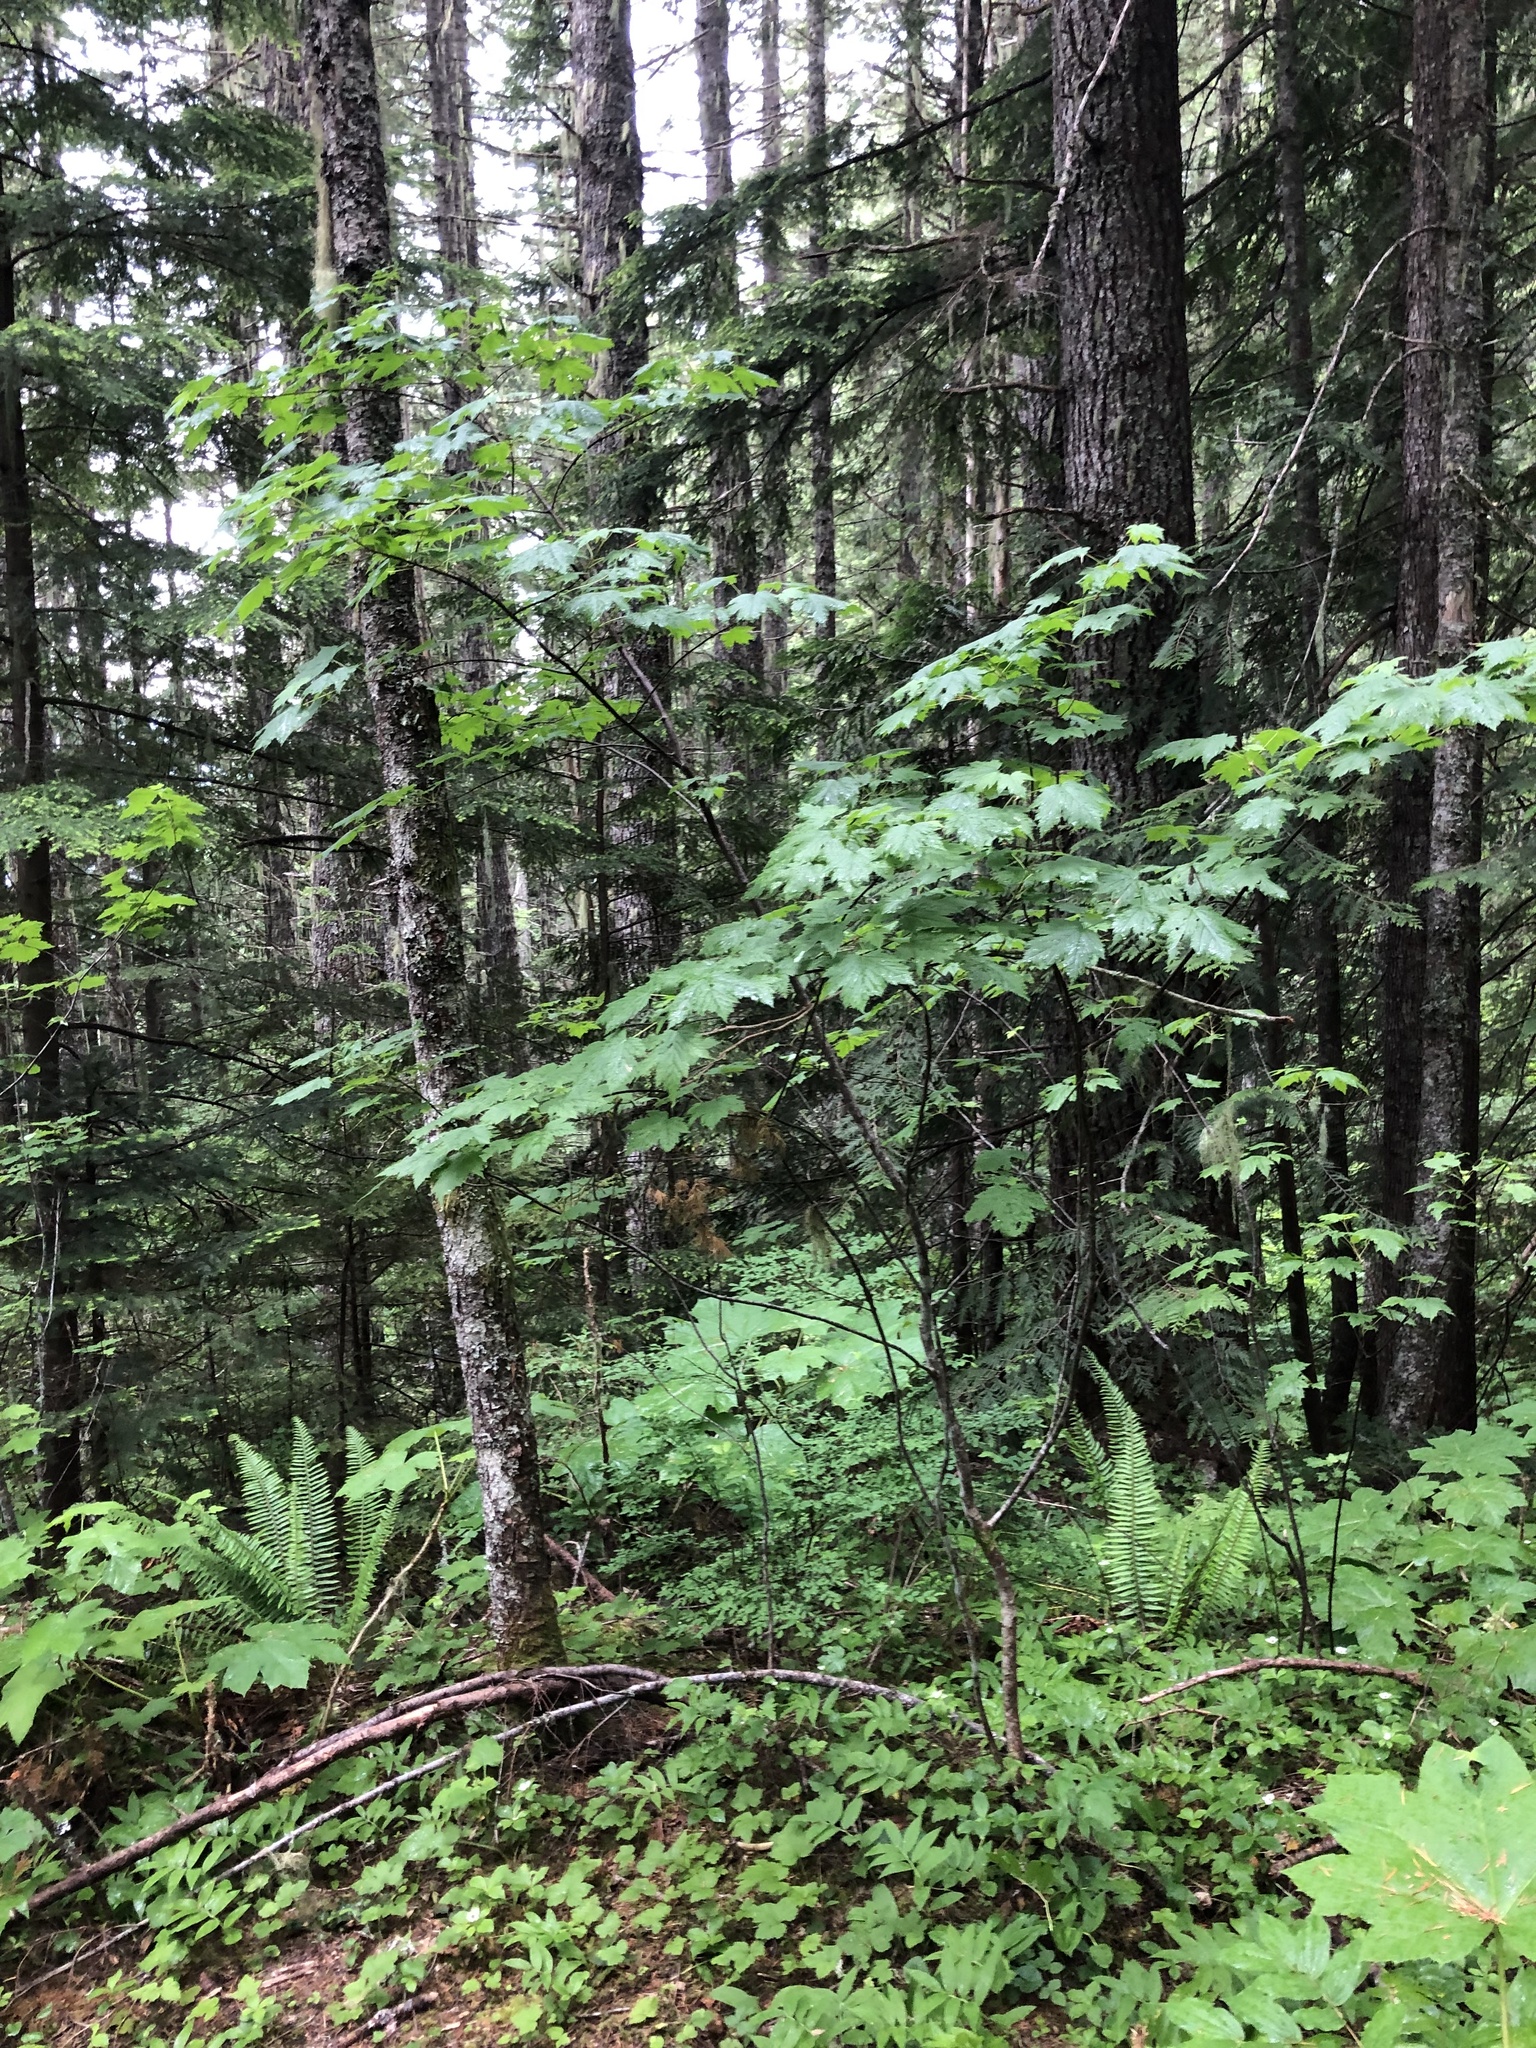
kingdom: Plantae
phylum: Tracheophyta
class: Magnoliopsida
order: Sapindales
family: Sapindaceae
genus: Acer
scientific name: Acer glabrum
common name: Rocky mountain maple
